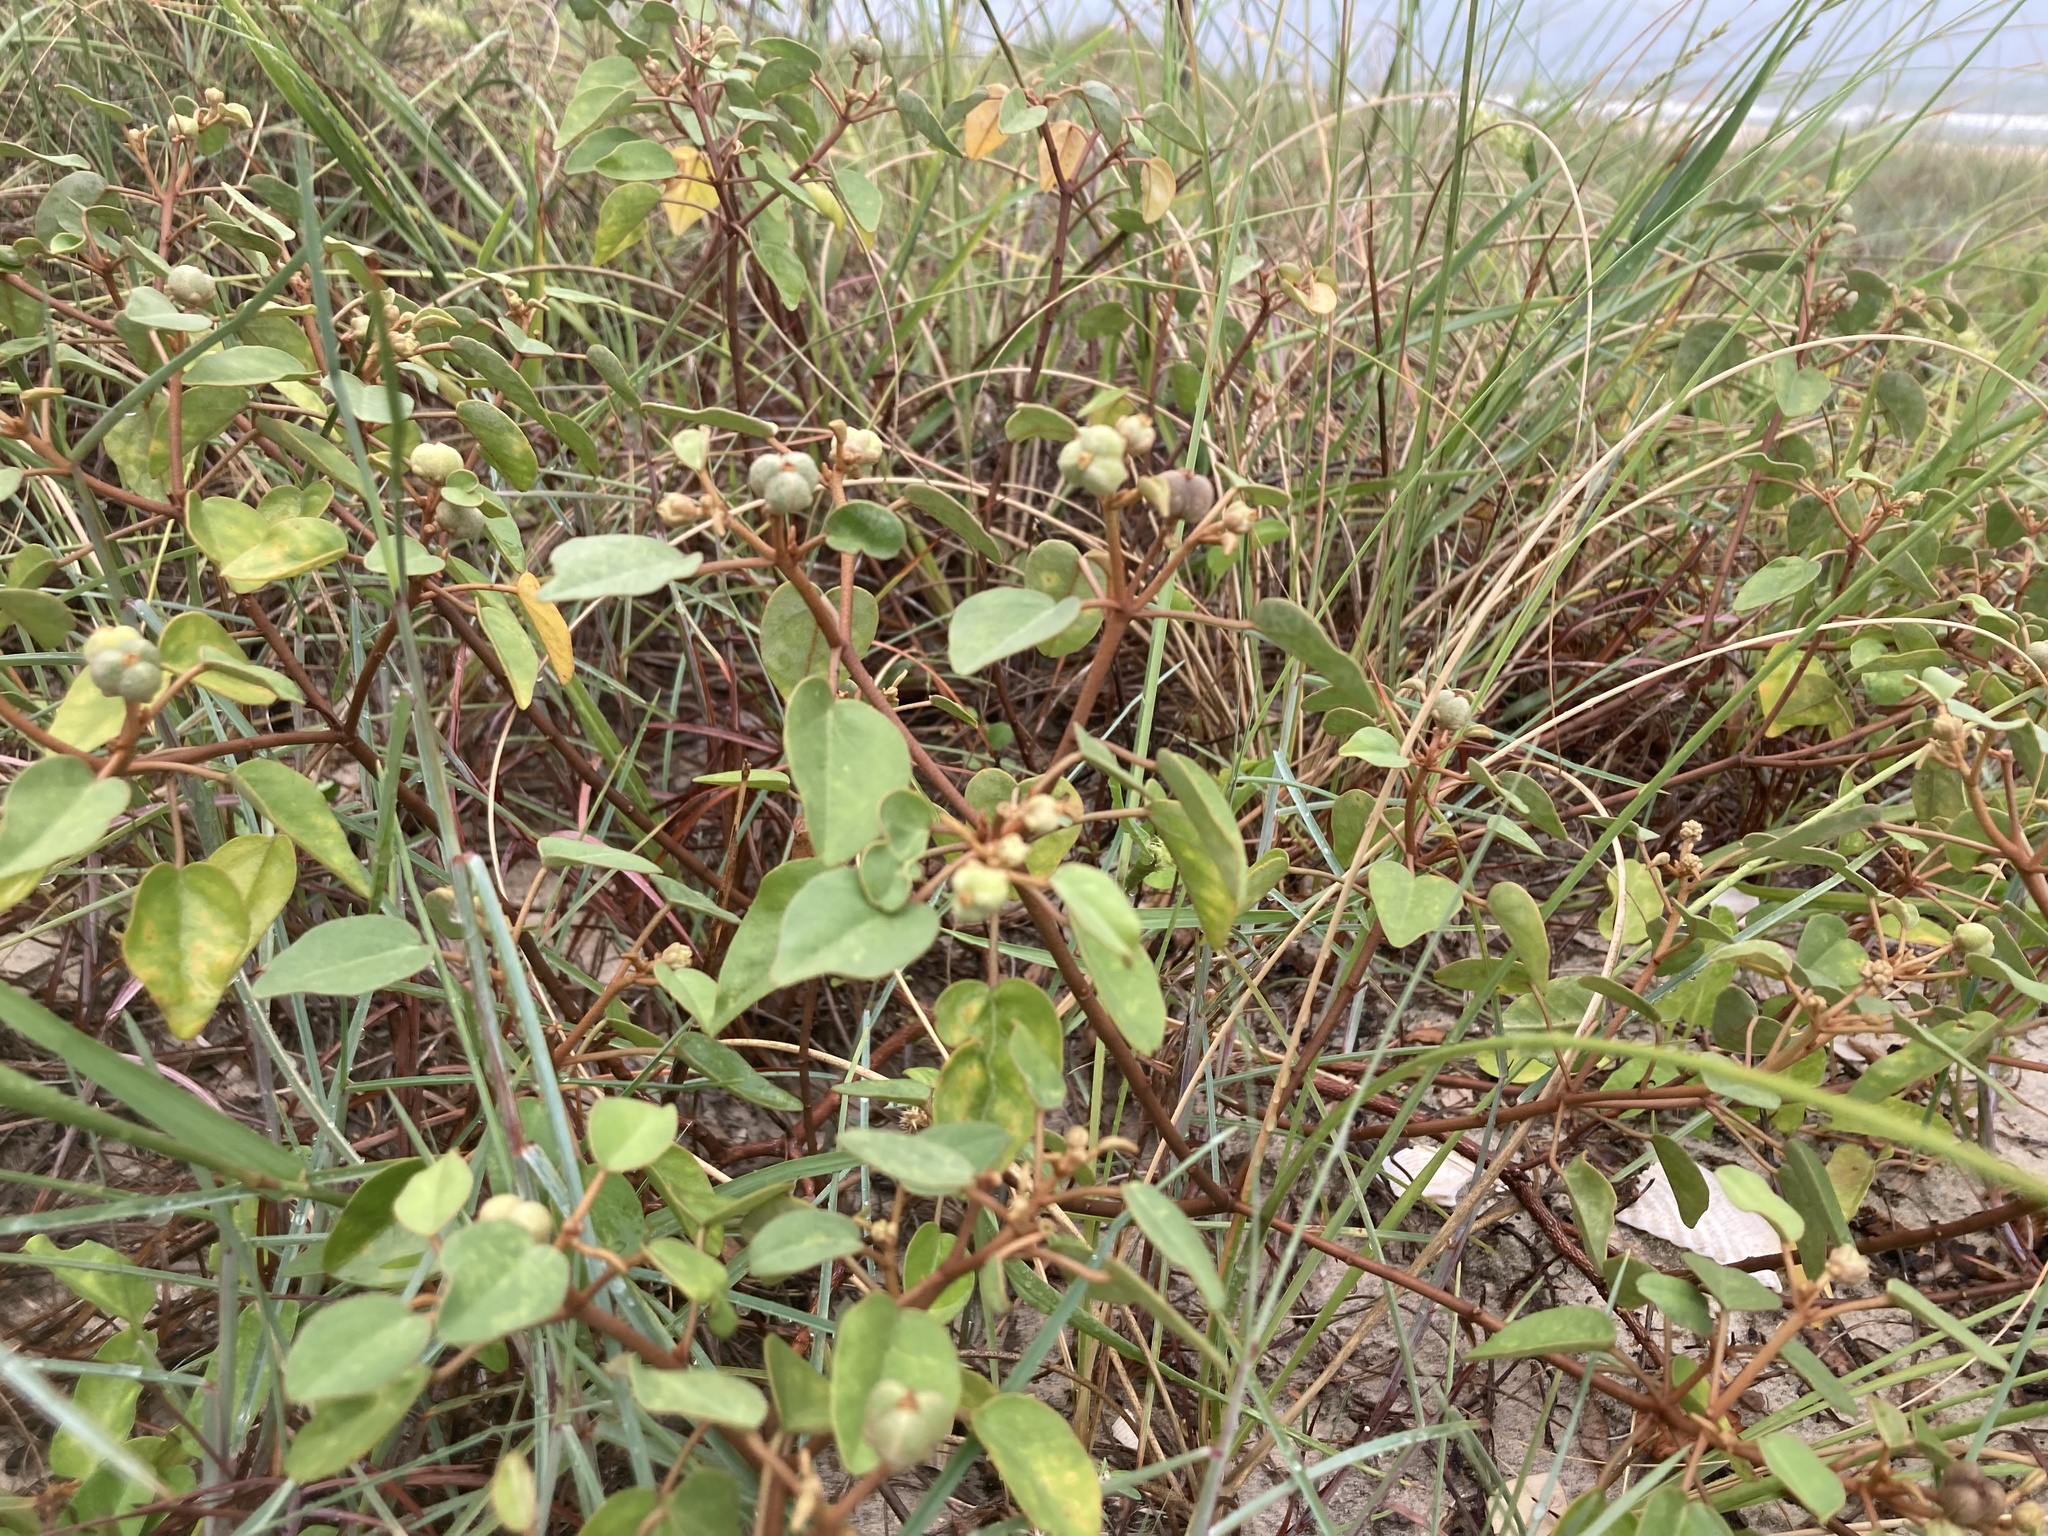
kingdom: Plantae
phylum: Tracheophyta
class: Magnoliopsida
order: Malpighiales
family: Euphorbiaceae
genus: Croton
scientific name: Croton punctatus
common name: Beach-tea
